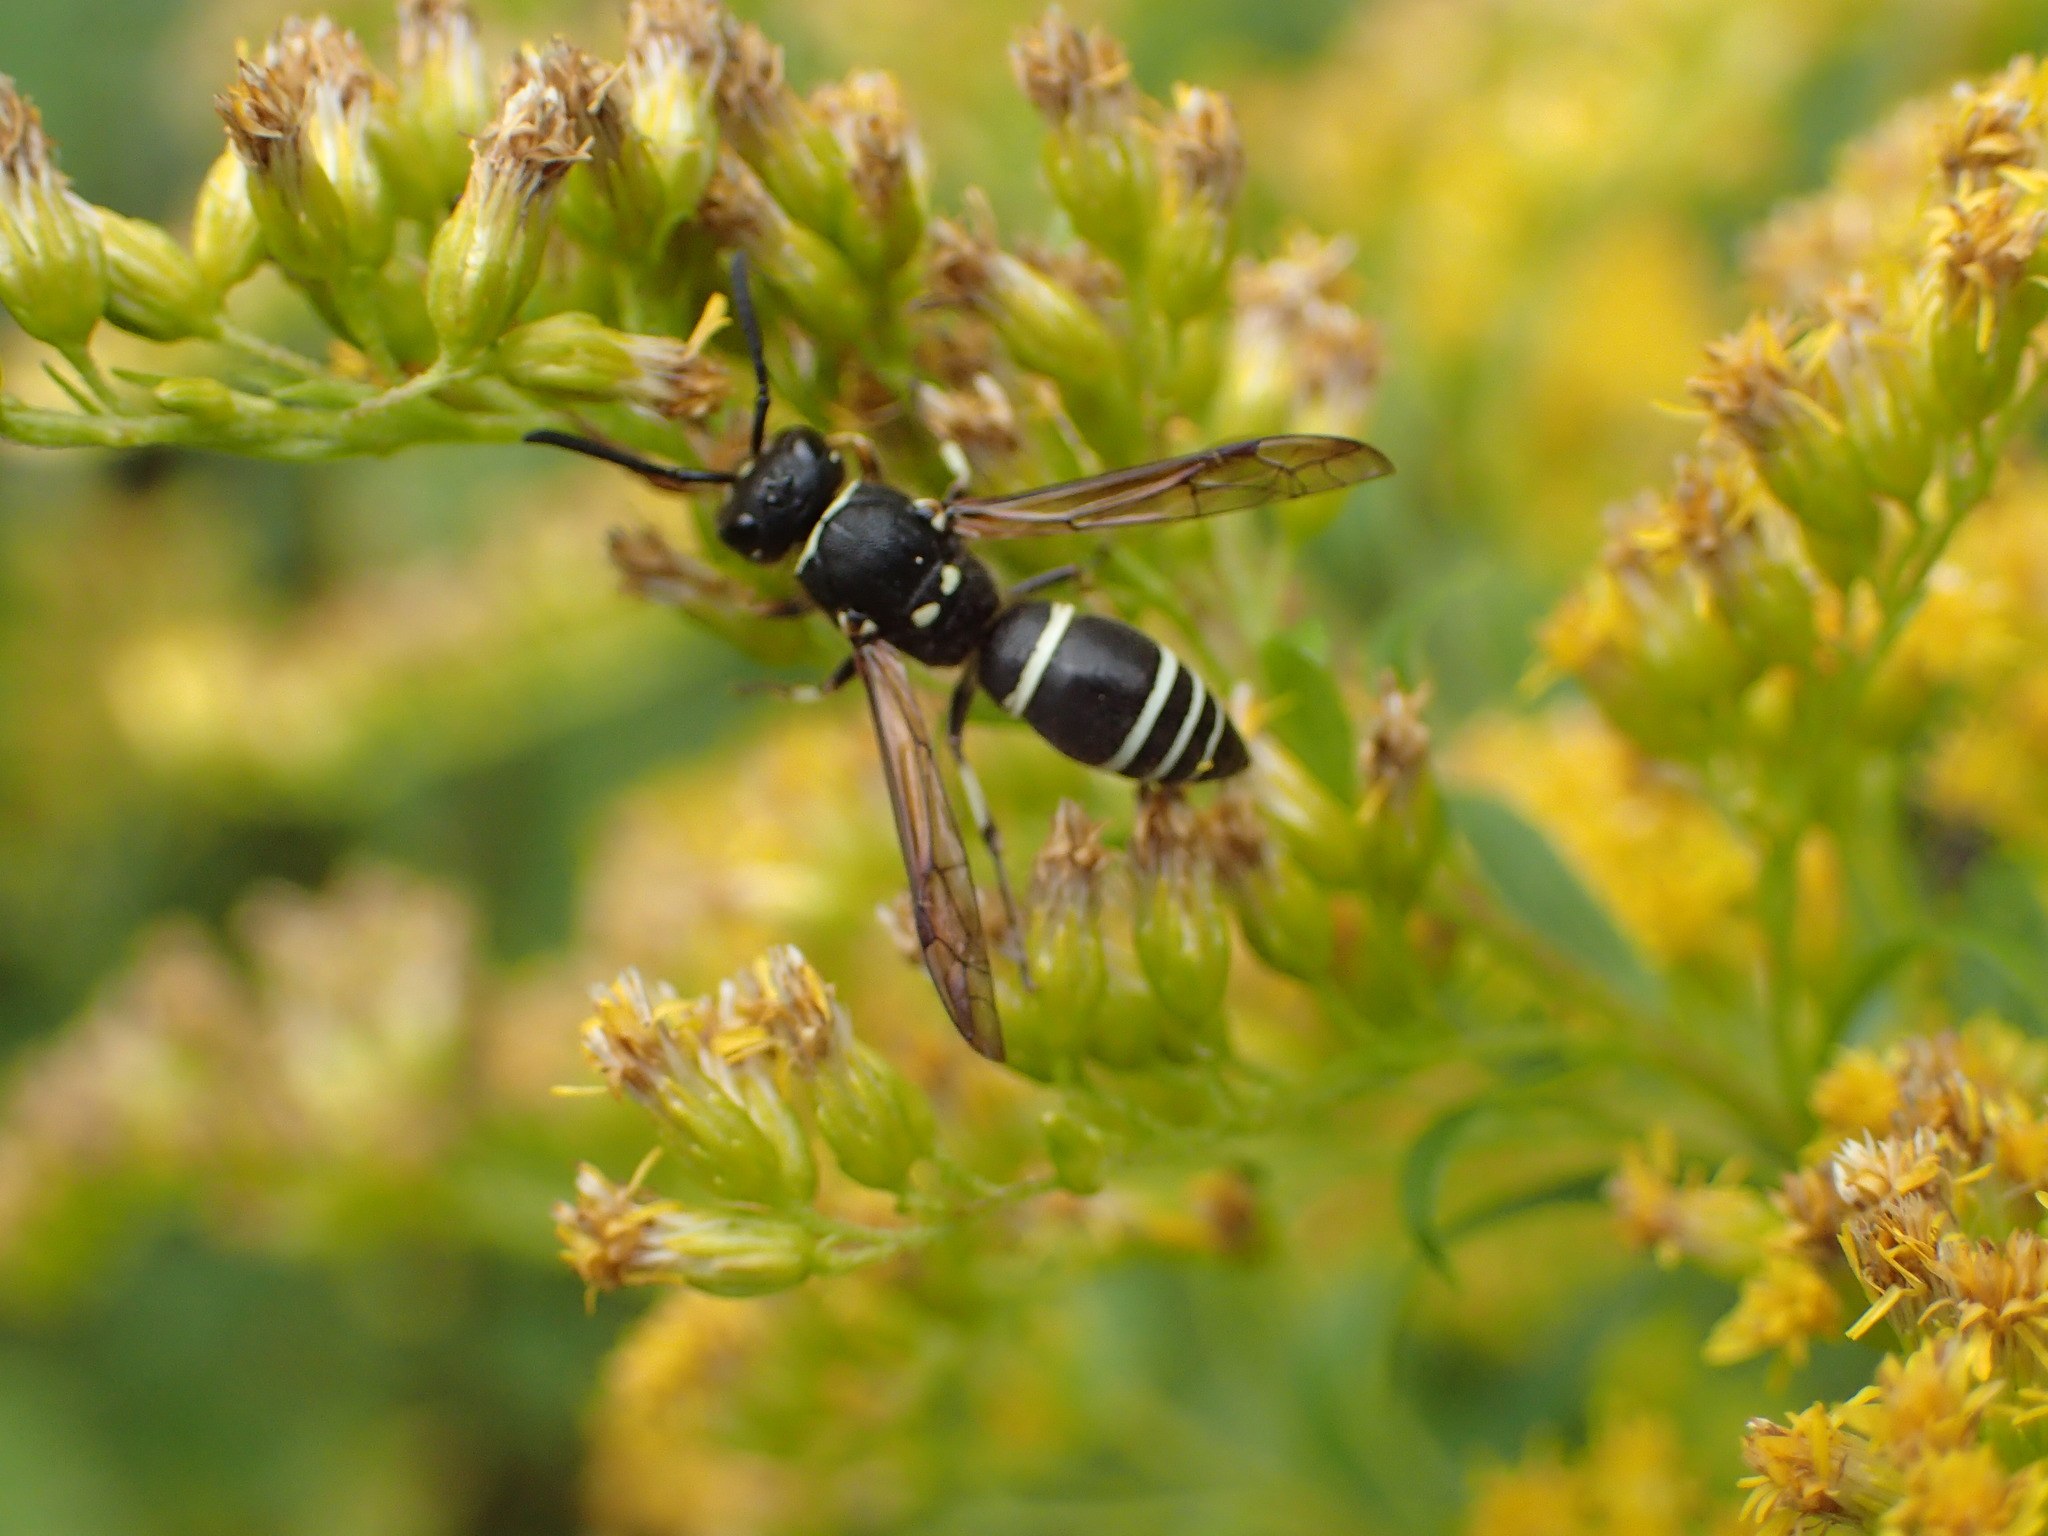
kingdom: Animalia
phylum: Arthropoda
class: Insecta
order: Hymenoptera
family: Vespidae
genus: Ancistrocerus
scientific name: Ancistrocerus albophaleratus
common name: White-banded potter wasp
